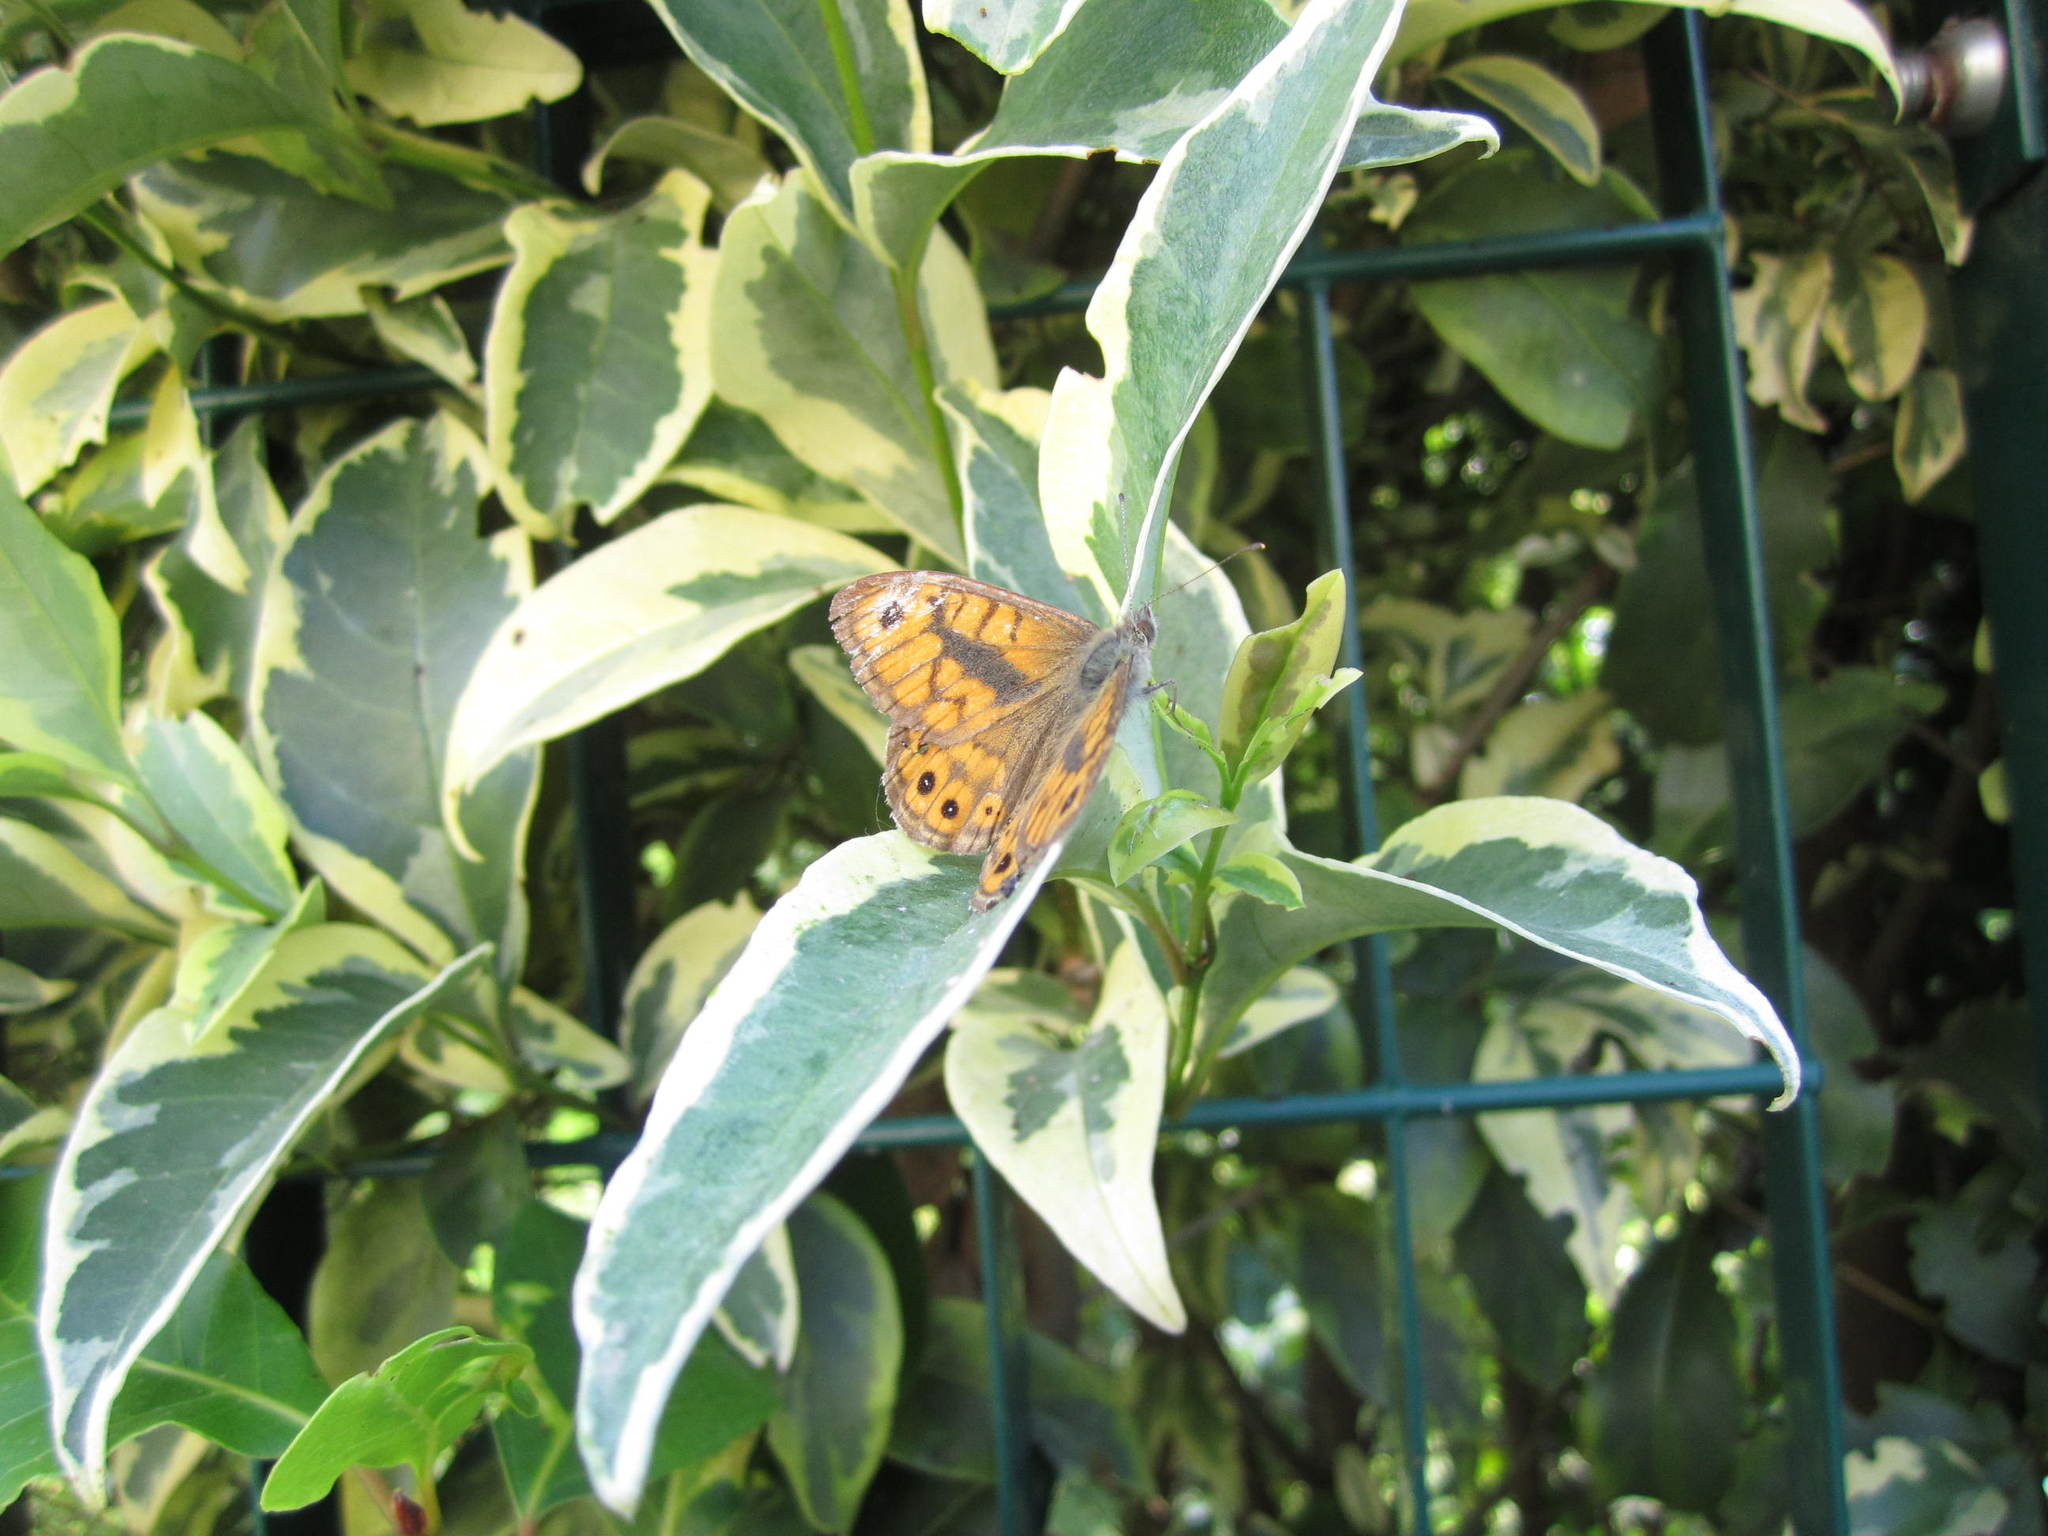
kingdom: Animalia
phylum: Arthropoda
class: Insecta
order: Lepidoptera
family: Nymphalidae
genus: Pararge
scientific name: Pararge Lasiommata megera
